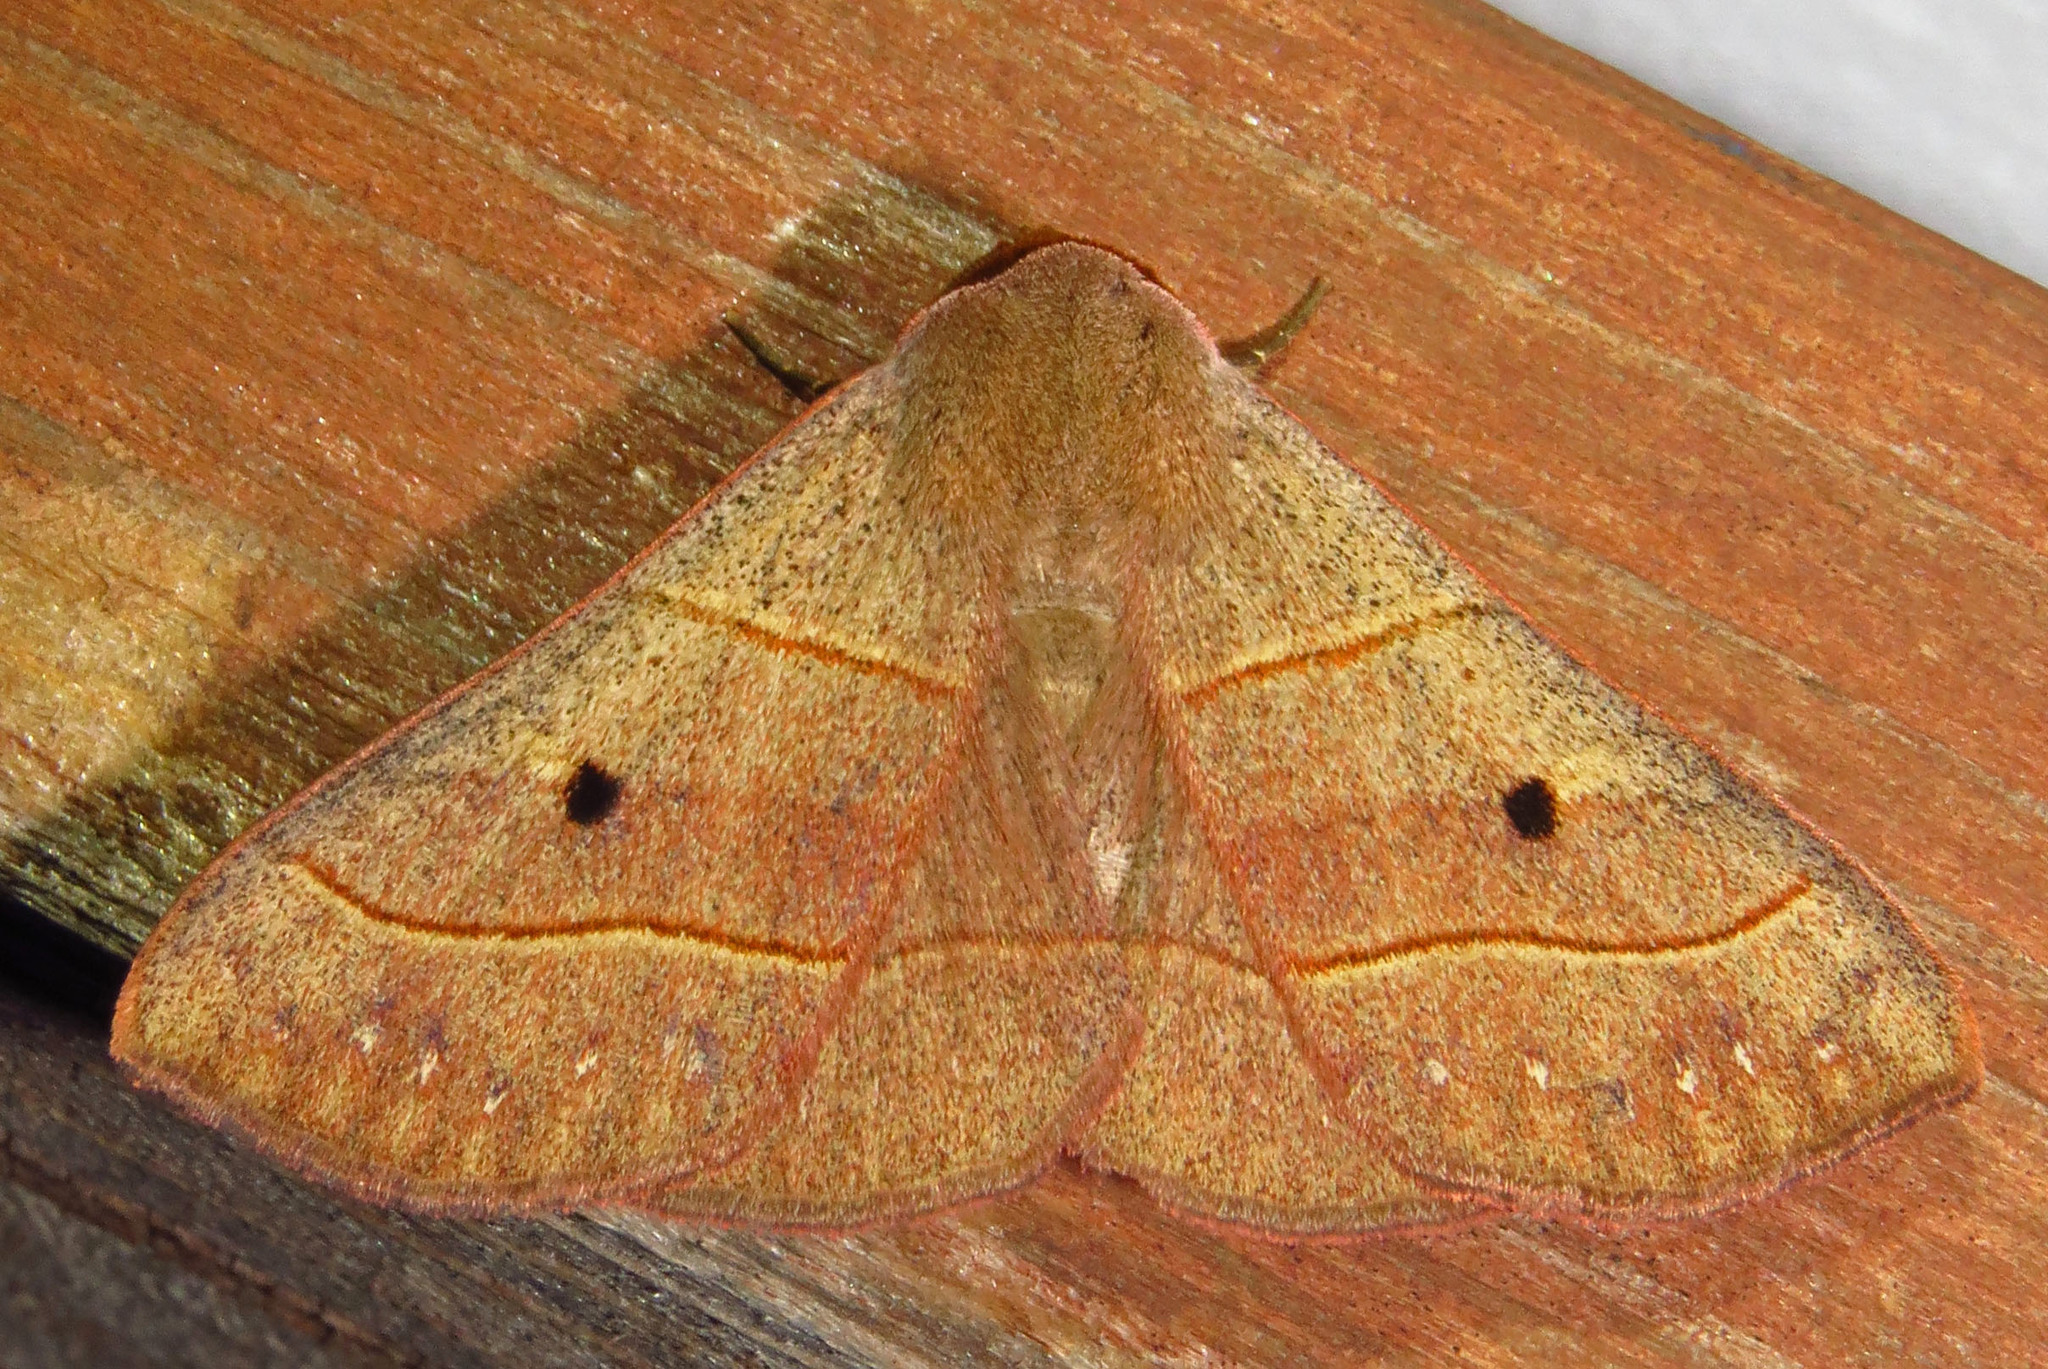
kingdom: Animalia
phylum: Arthropoda
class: Insecta
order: Lepidoptera
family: Erebidae
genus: Panopoda
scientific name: Panopoda rufimargo
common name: Red-lined panopoda moth
